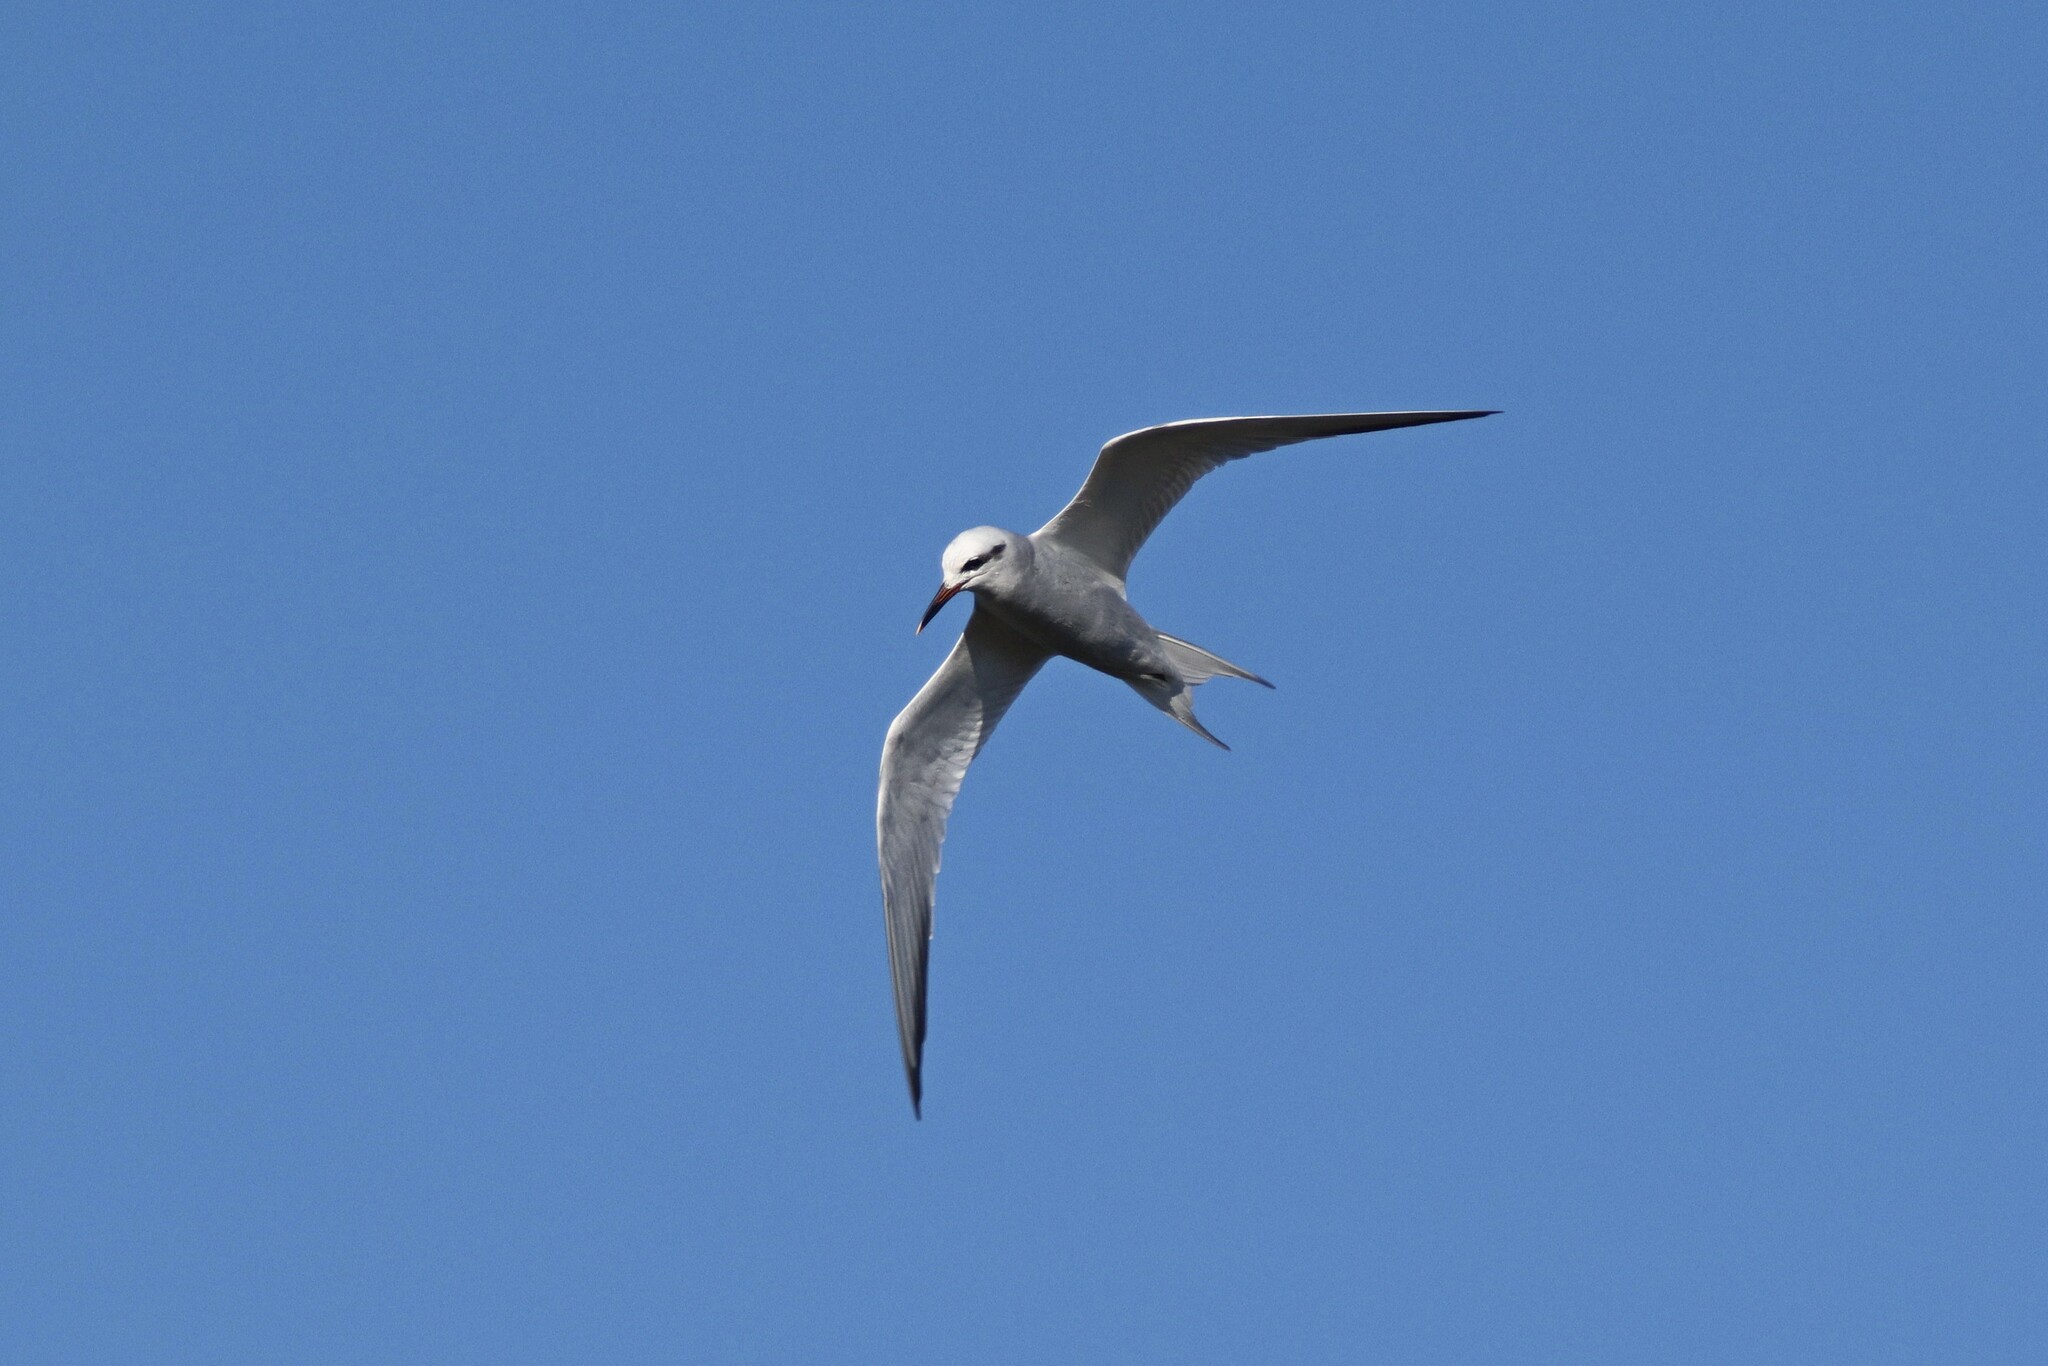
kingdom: Animalia
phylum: Chordata
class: Aves
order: Charadriiformes
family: Laridae
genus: Sterna
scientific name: Sterna trudeaui
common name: Snowy-crowned tern
